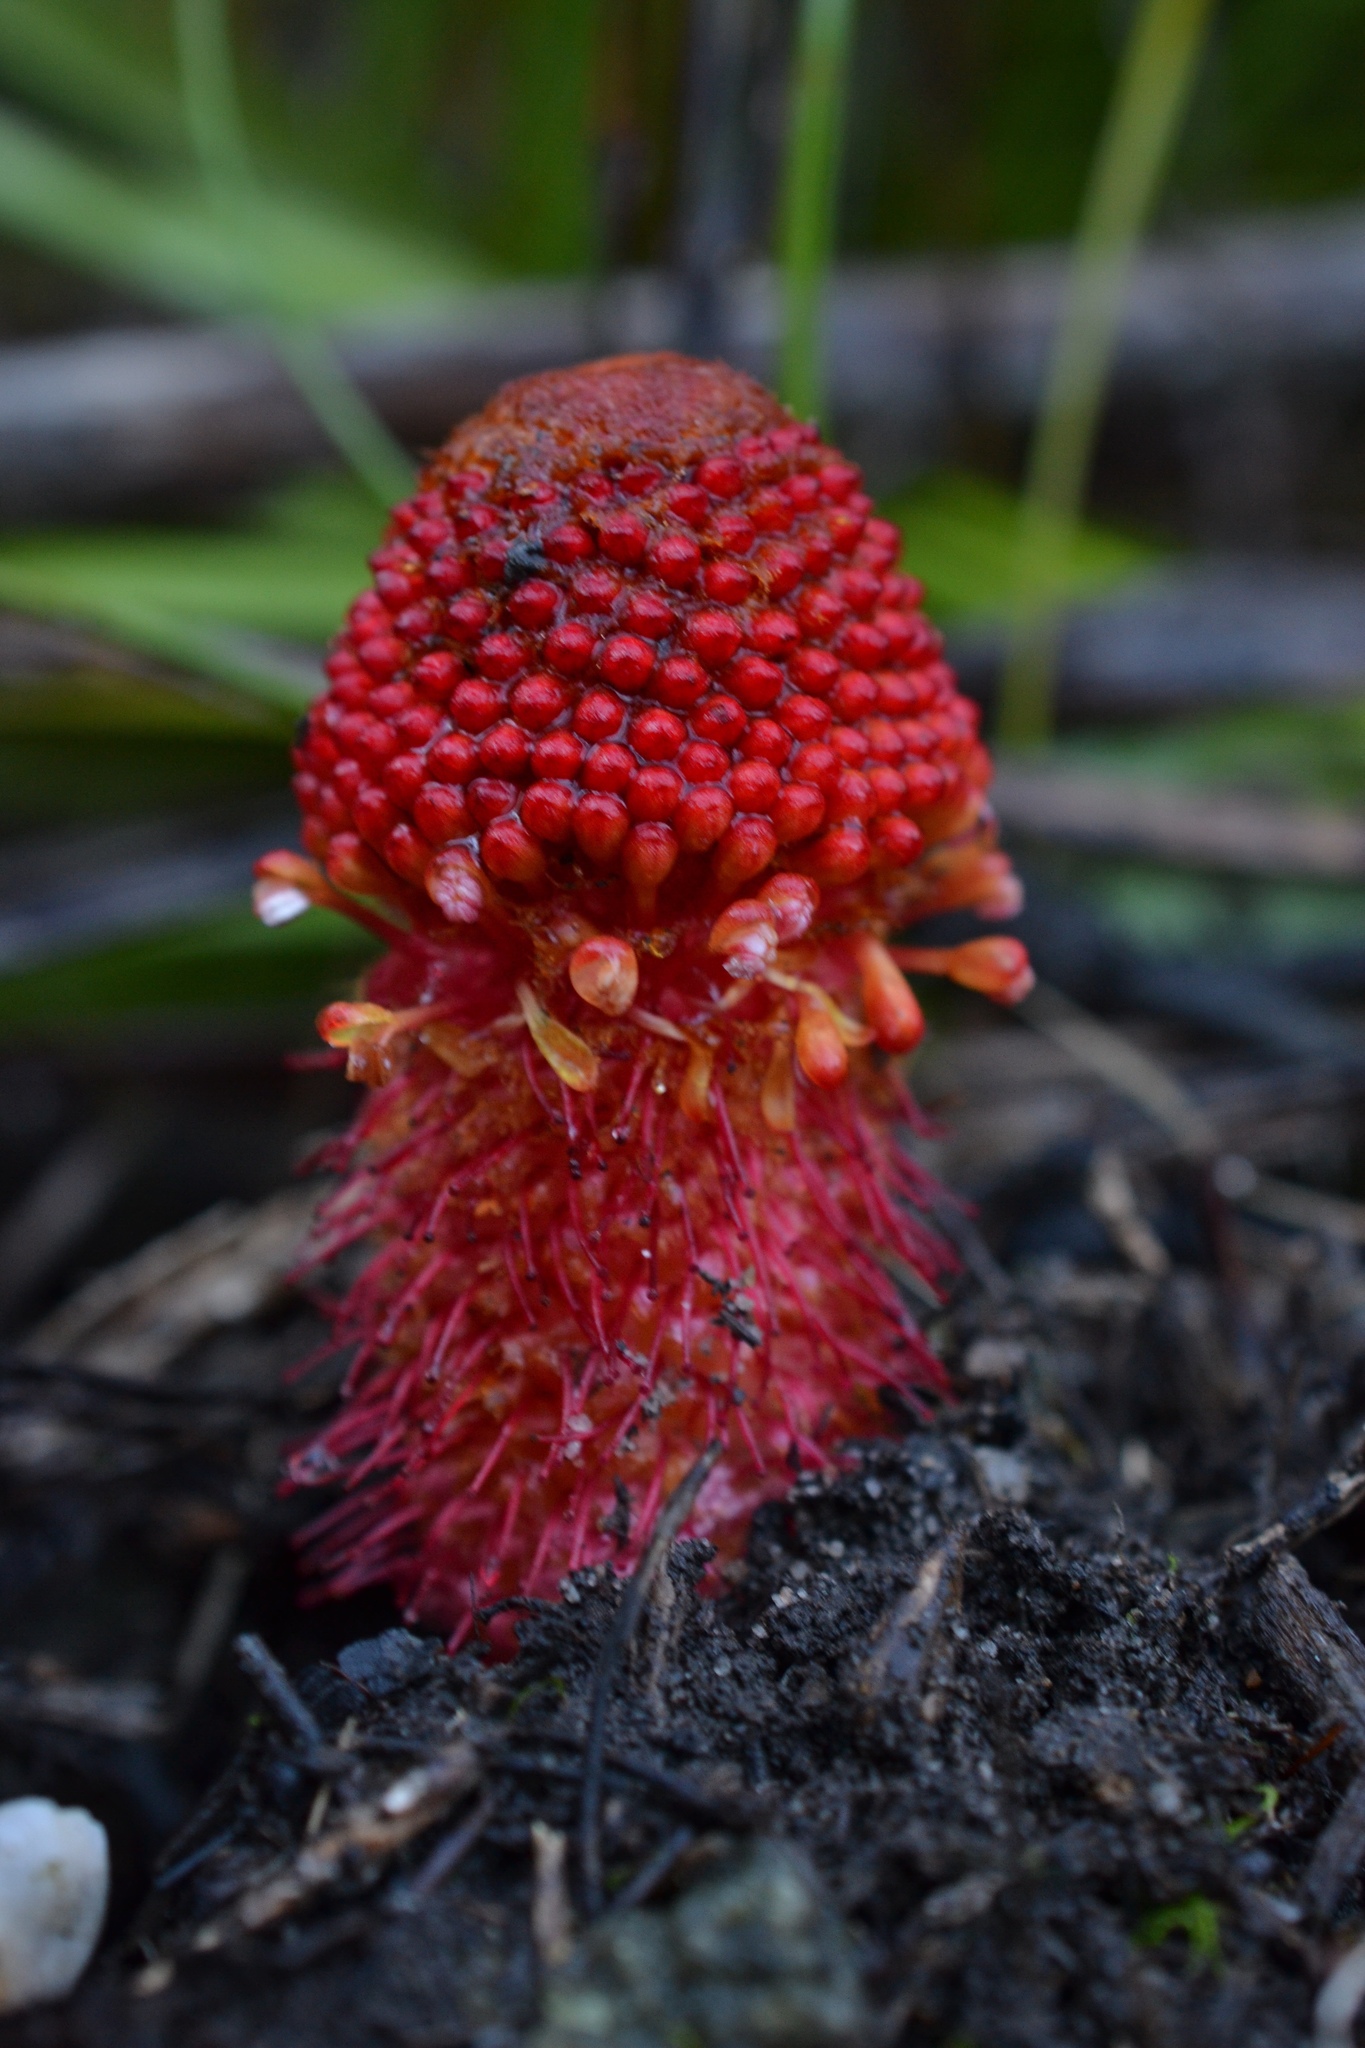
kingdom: Plantae
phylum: Tracheophyta
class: Magnoliopsida
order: Santalales
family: Mystropetalaceae
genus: Mystropetalon
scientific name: Mystropetalon thomii
